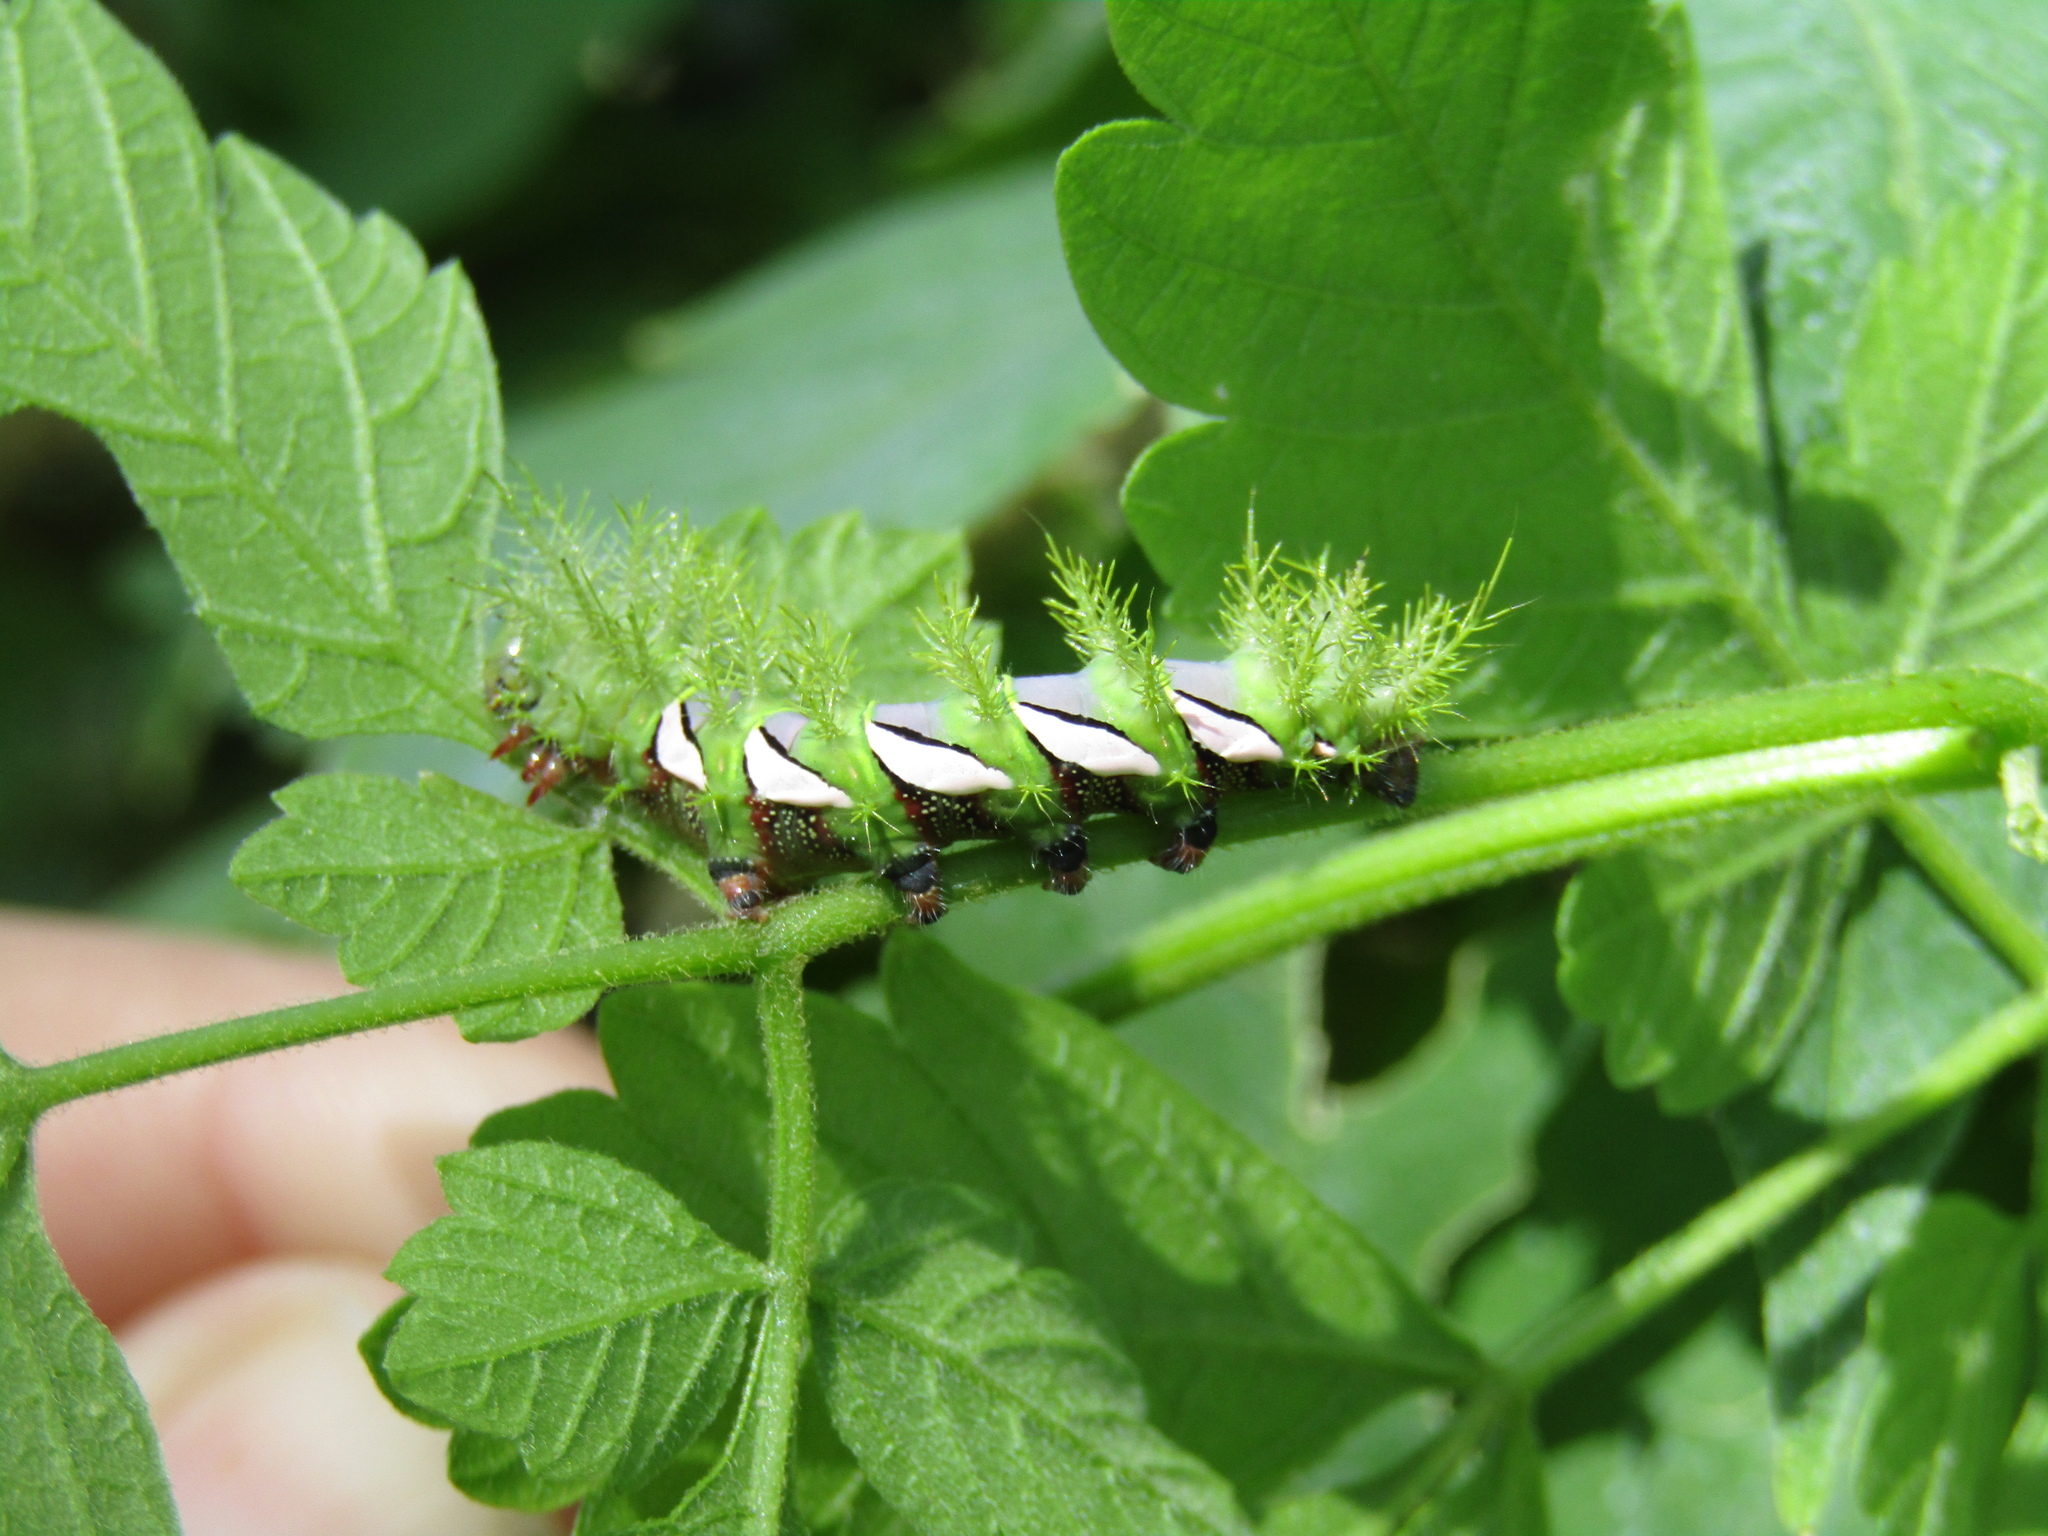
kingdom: Animalia
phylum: Arthropoda
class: Insecta
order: Lepidoptera
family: Saturniidae
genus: Automeris
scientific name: Automeris naranja
